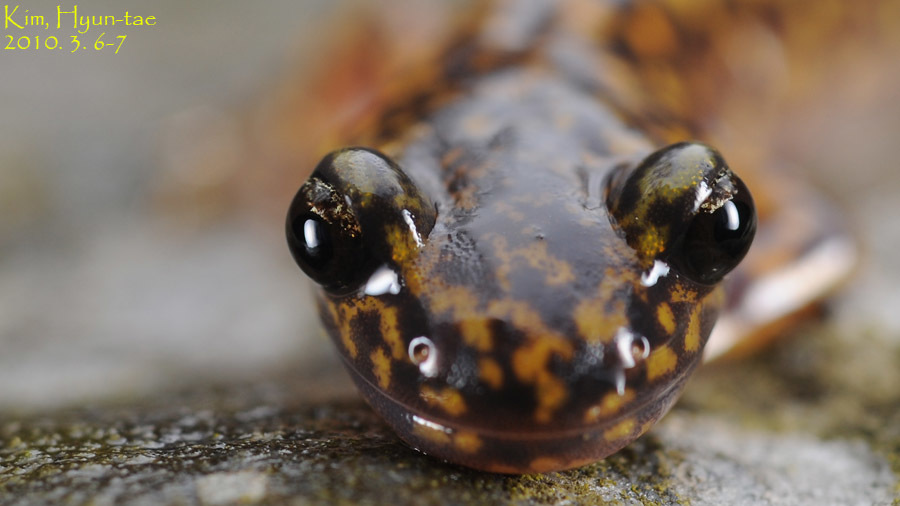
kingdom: Animalia
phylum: Chordata
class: Amphibia
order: Caudata
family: Hynobiidae
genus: Onychodactylus
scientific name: Onychodactylus koreanus
